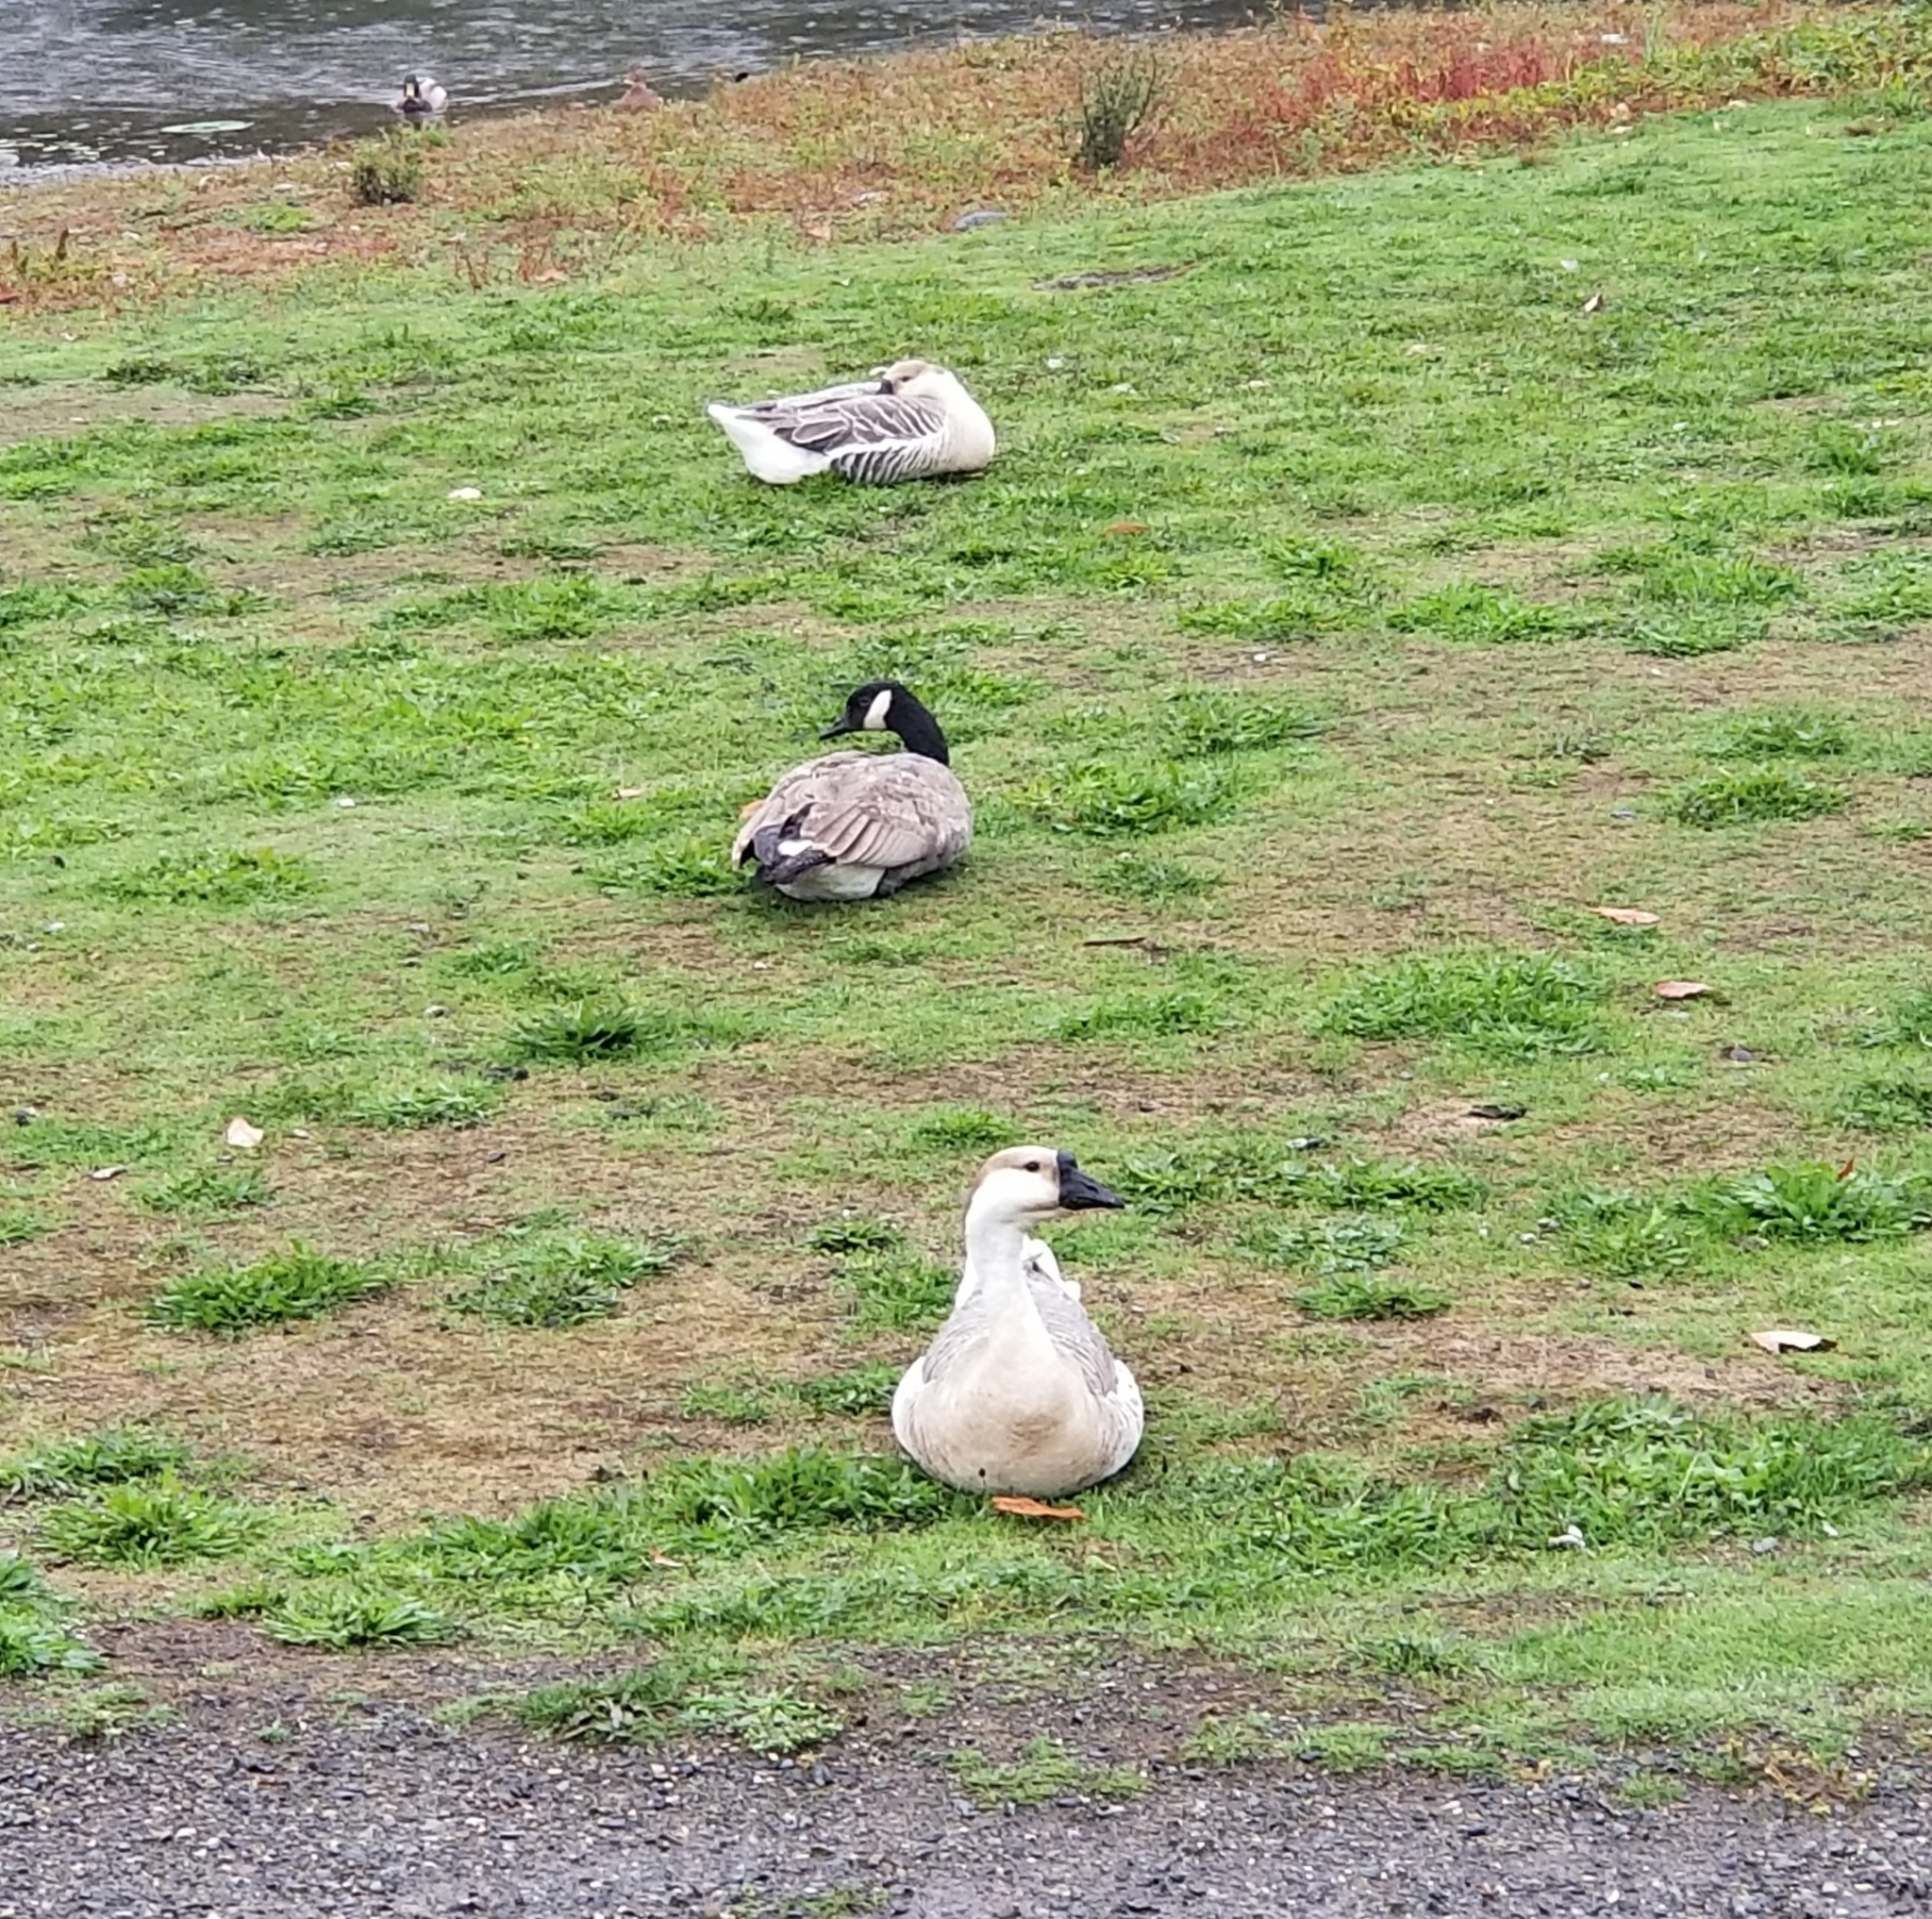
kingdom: Animalia
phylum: Chordata
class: Aves
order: Anseriformes
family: Anatidae
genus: Anser
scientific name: Anser cygnoides
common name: Swan goose
